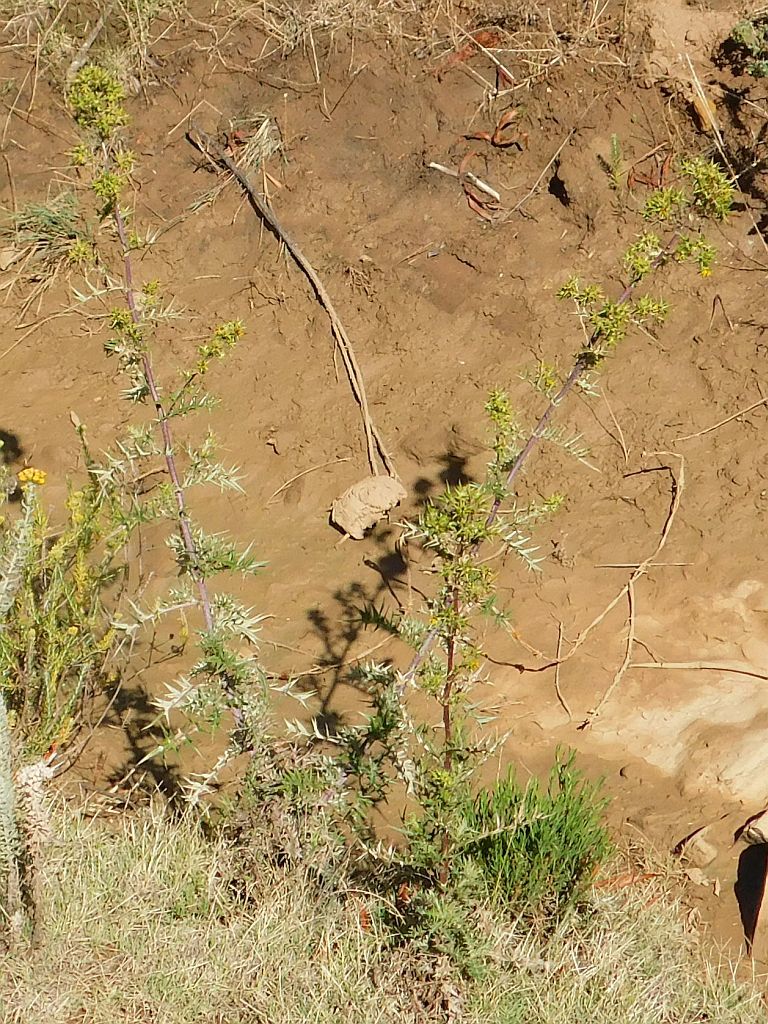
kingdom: Plantae
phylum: Tracheophyta
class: Magnoliopsida
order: Asterales
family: Asteraceae
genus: Berkheya
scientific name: Berkheya rigida
